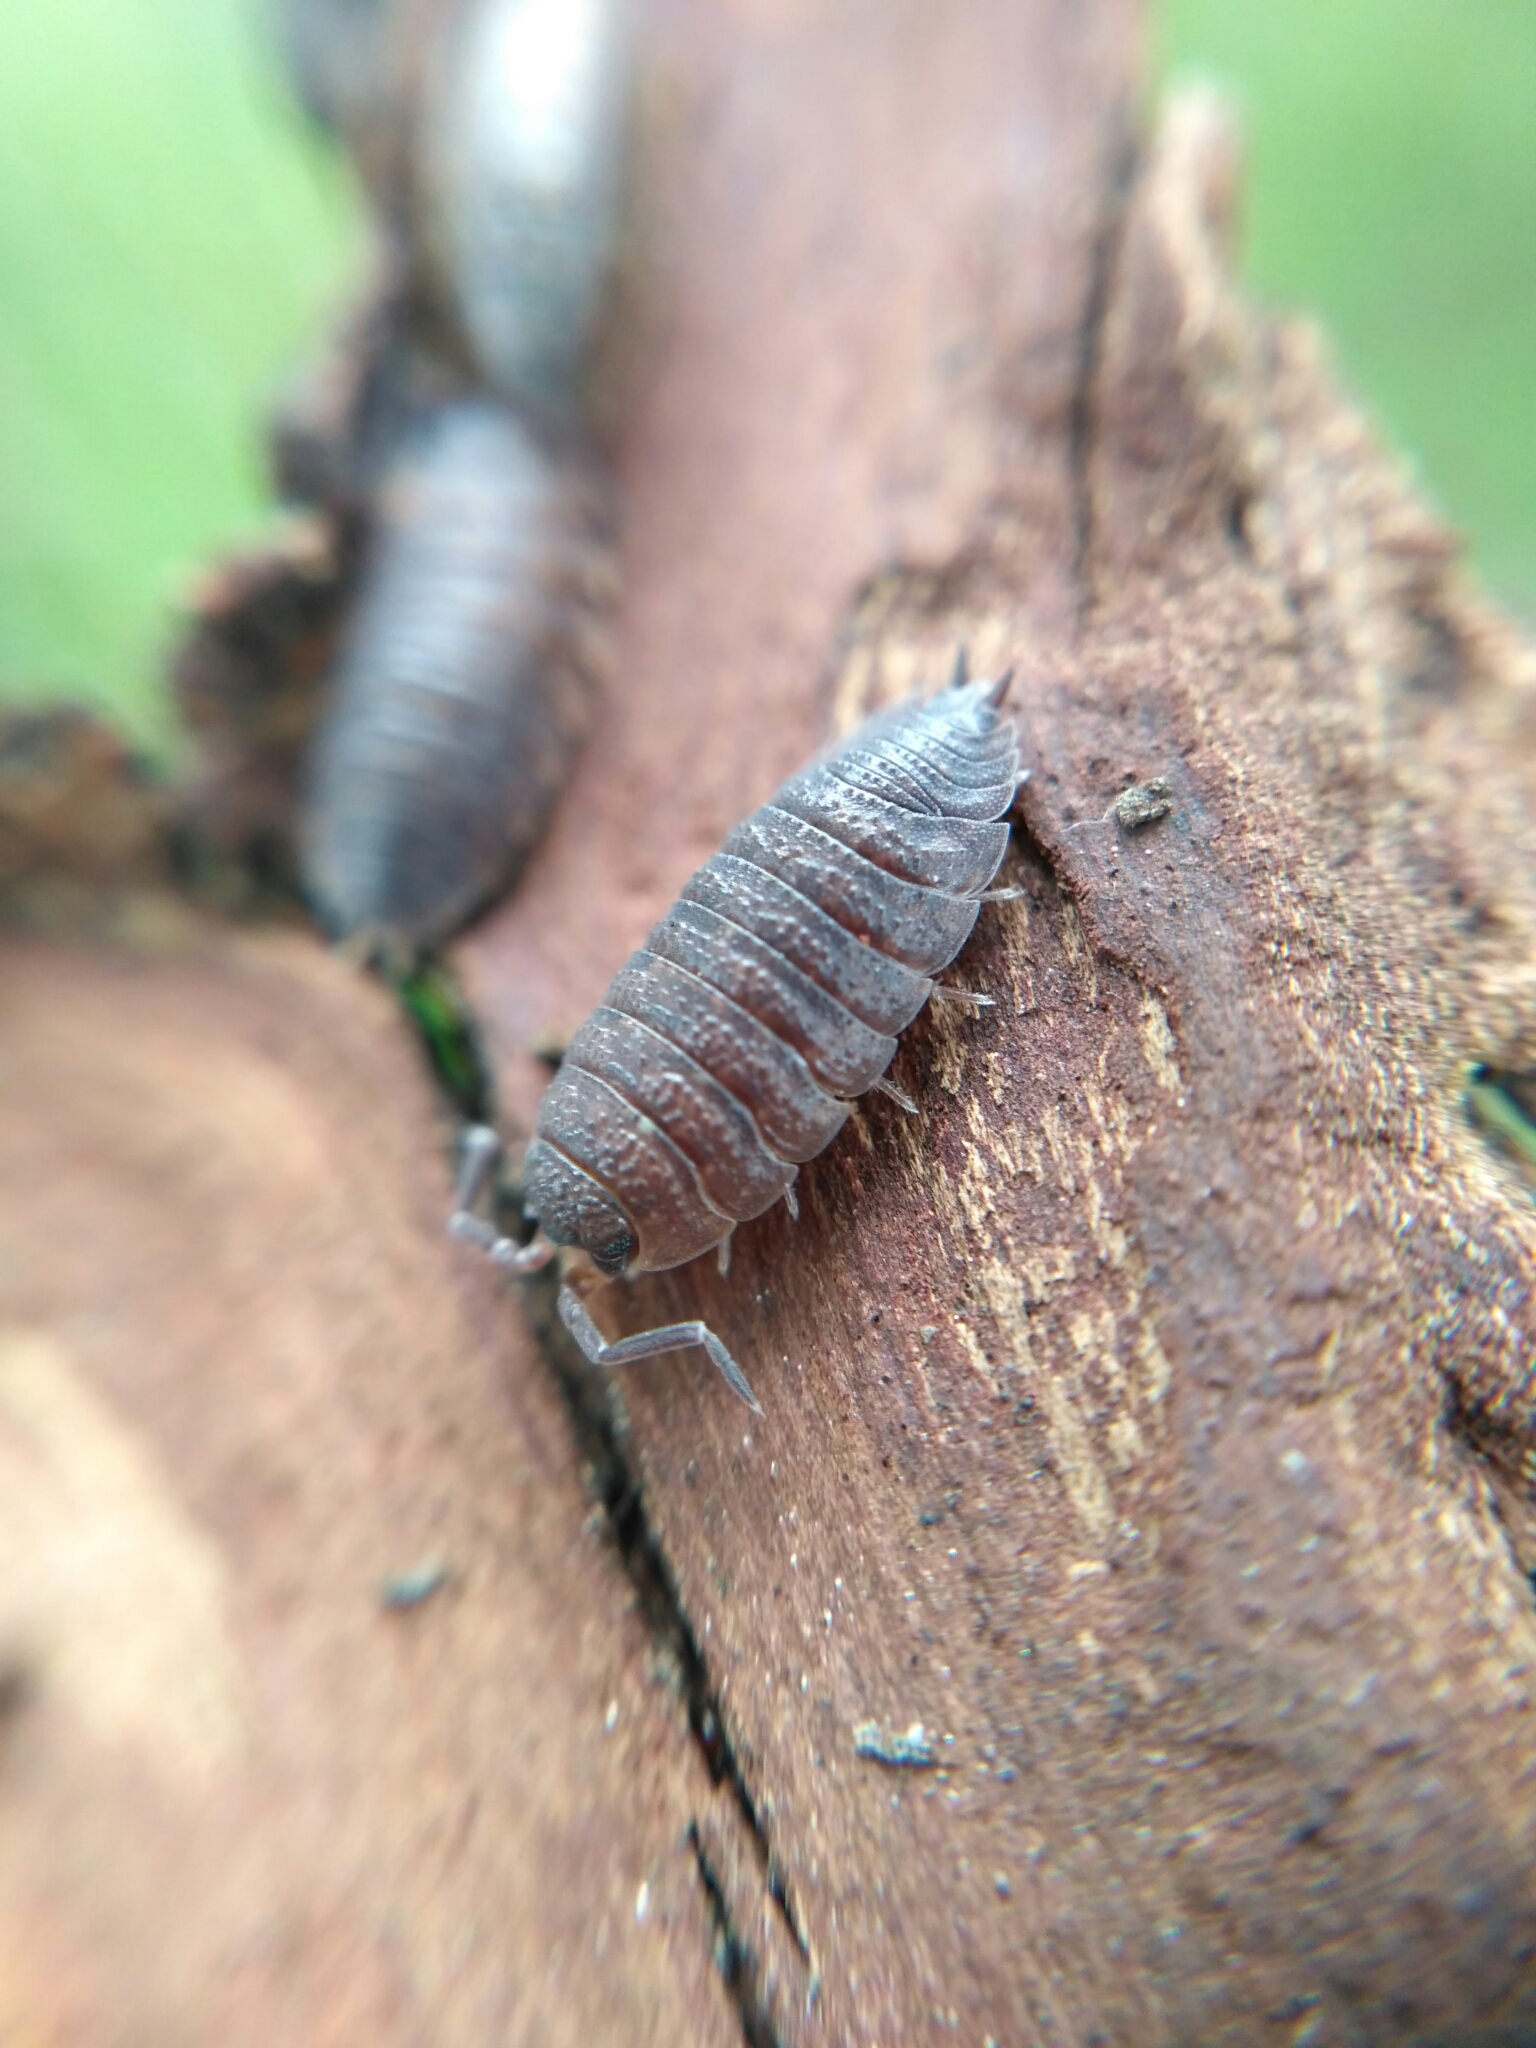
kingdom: Animalia
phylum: Arthropoda
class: Malacostraca
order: Isopoda
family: Porcellionidae
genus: Porcellio
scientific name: Porcellio scaber
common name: Common rough woodlouse
